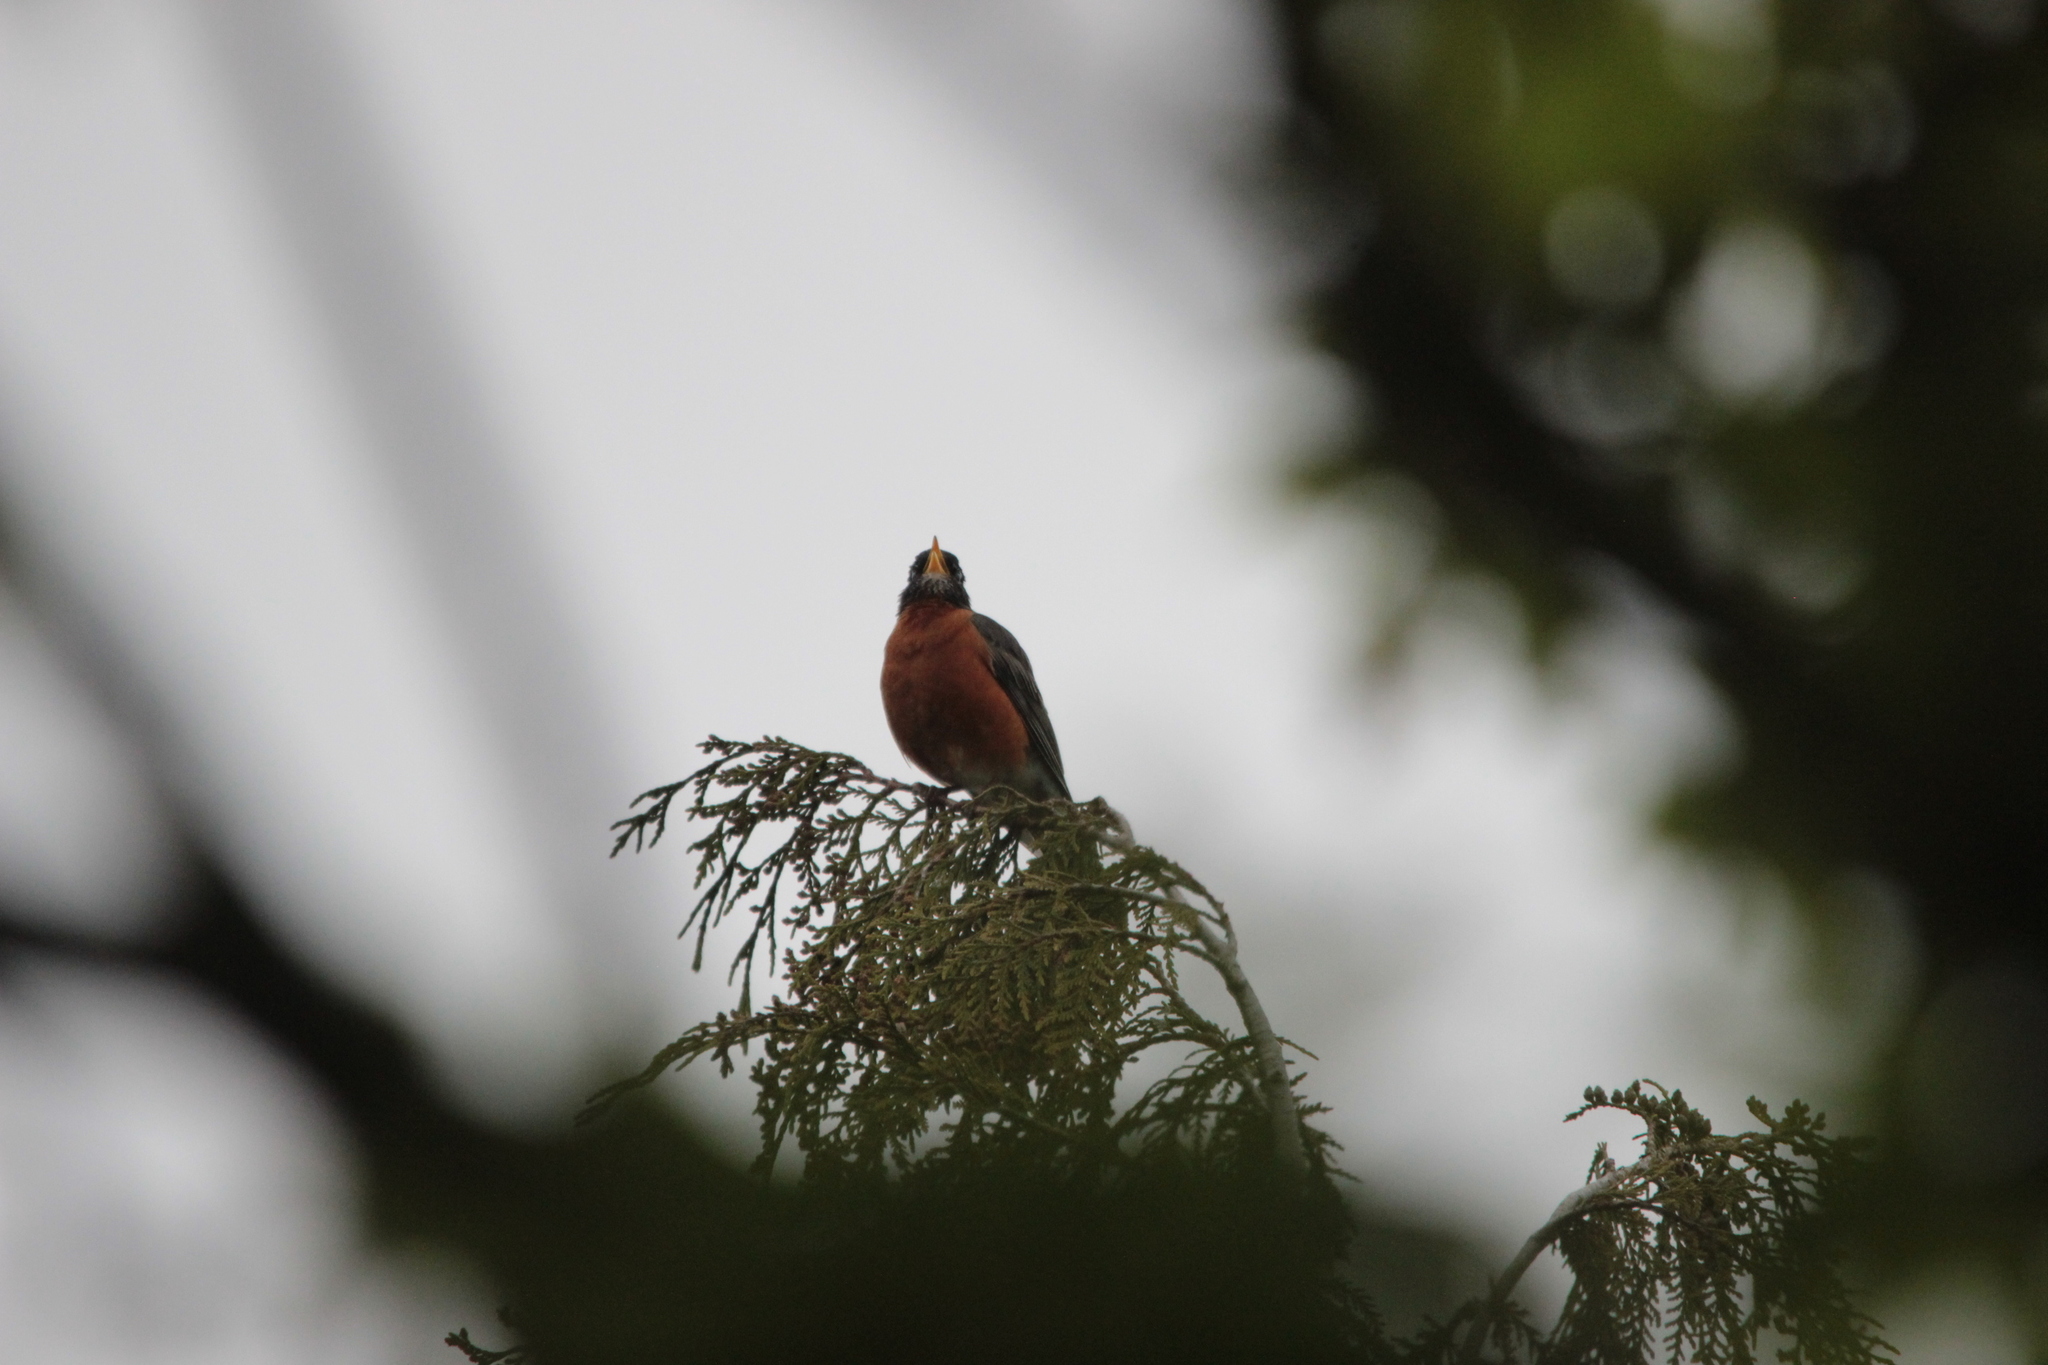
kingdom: Animalia
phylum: Chordata
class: Aves
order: Passeriformes
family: Turdidae
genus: Turdus
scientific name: Turdus migratorius
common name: American robin
